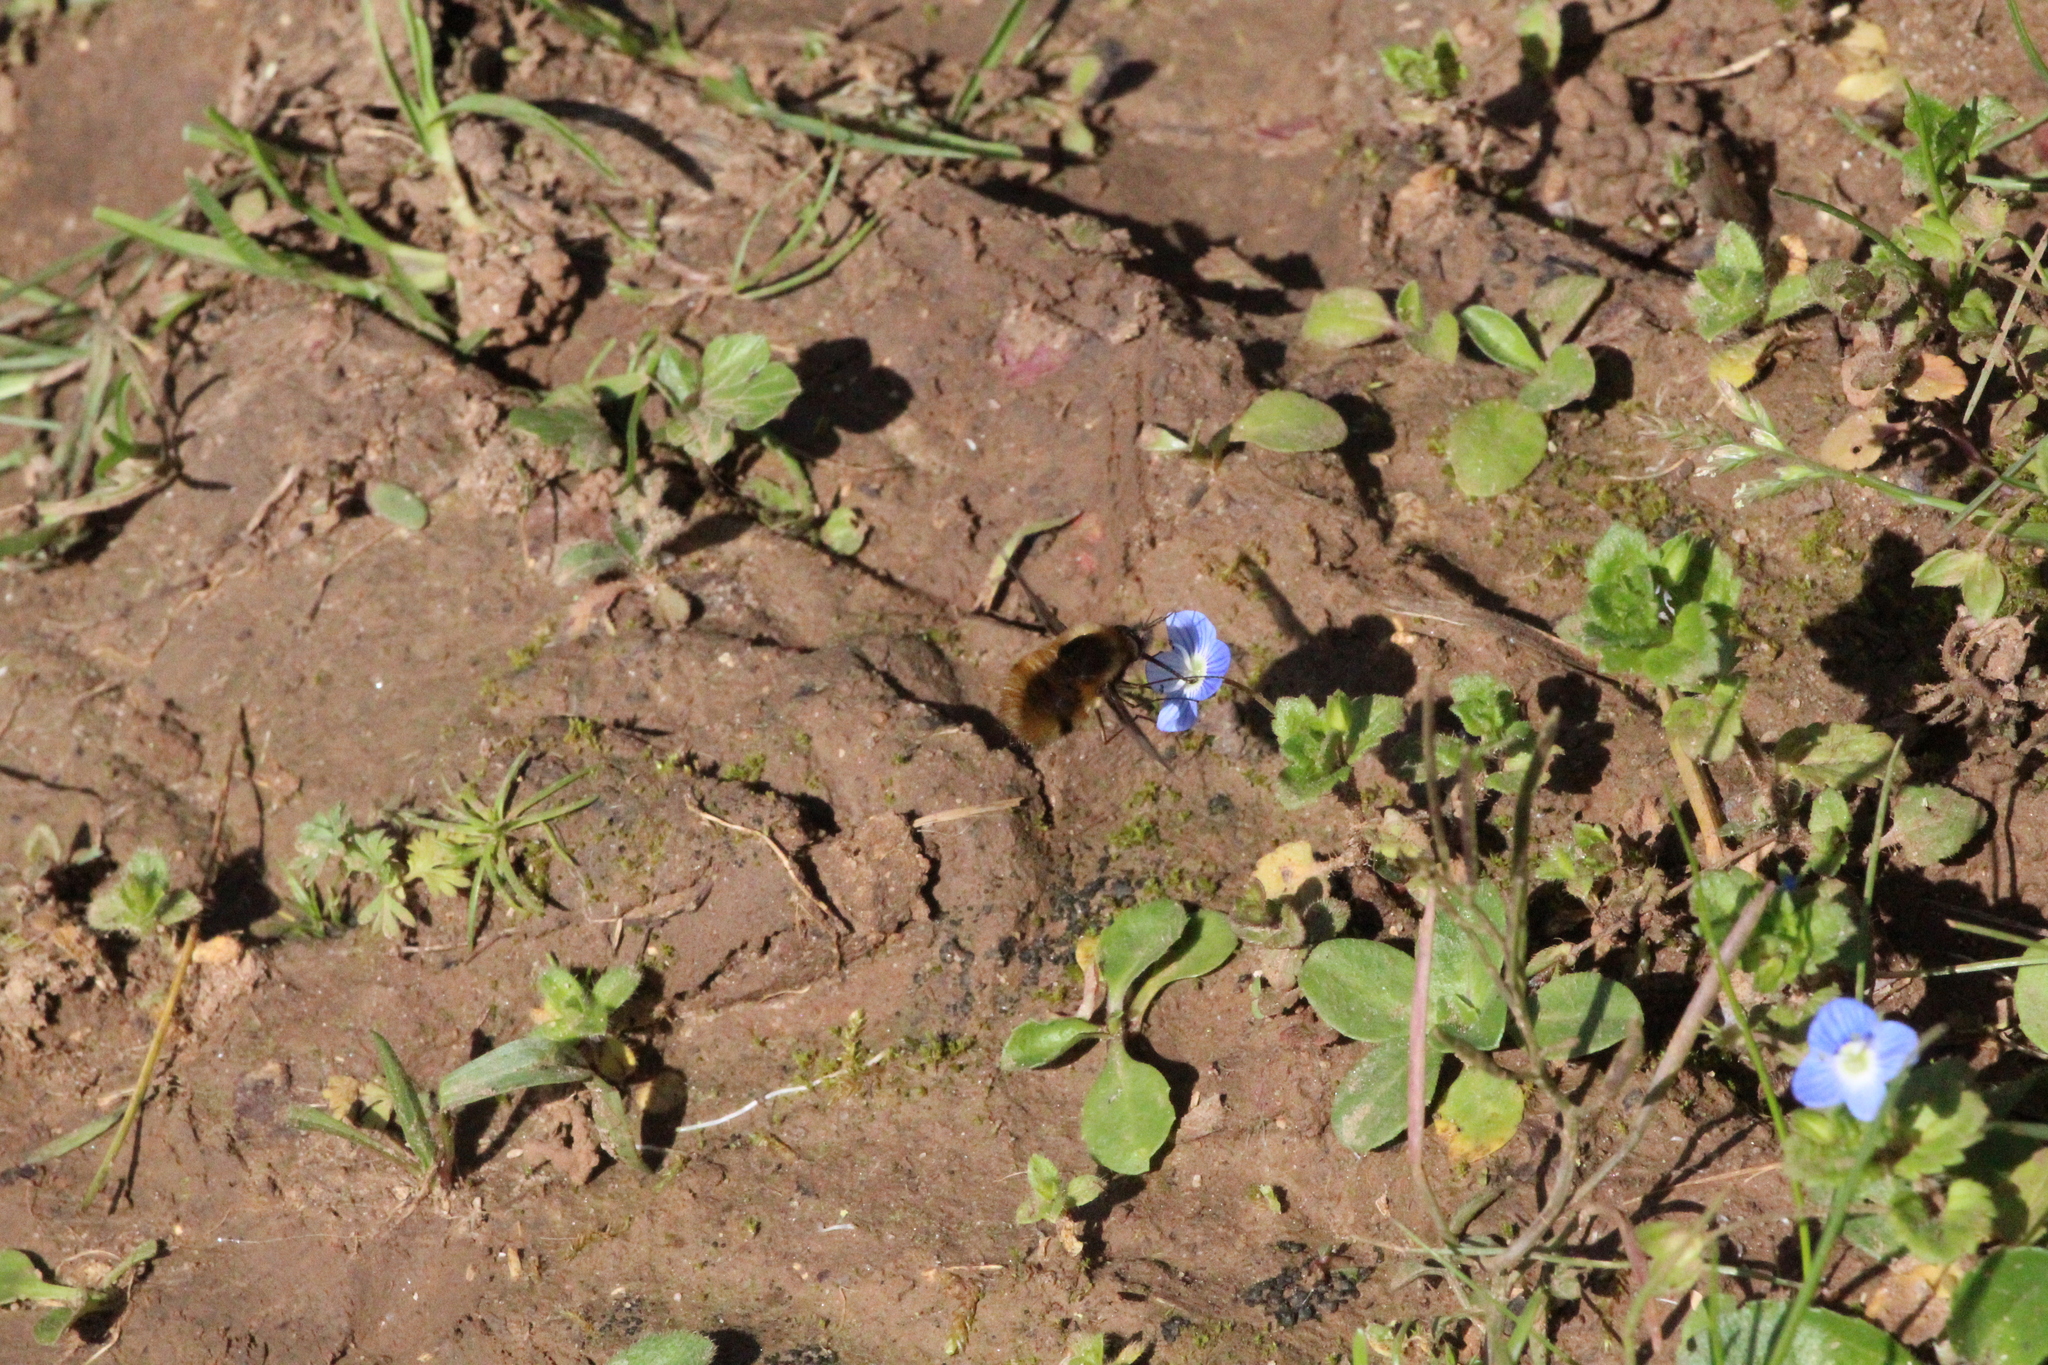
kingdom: Animalia
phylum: Arthropoda
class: Insecta
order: Diptera
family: Bombyliidae
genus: Bombylius
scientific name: Bombylius major
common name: Bee fly
